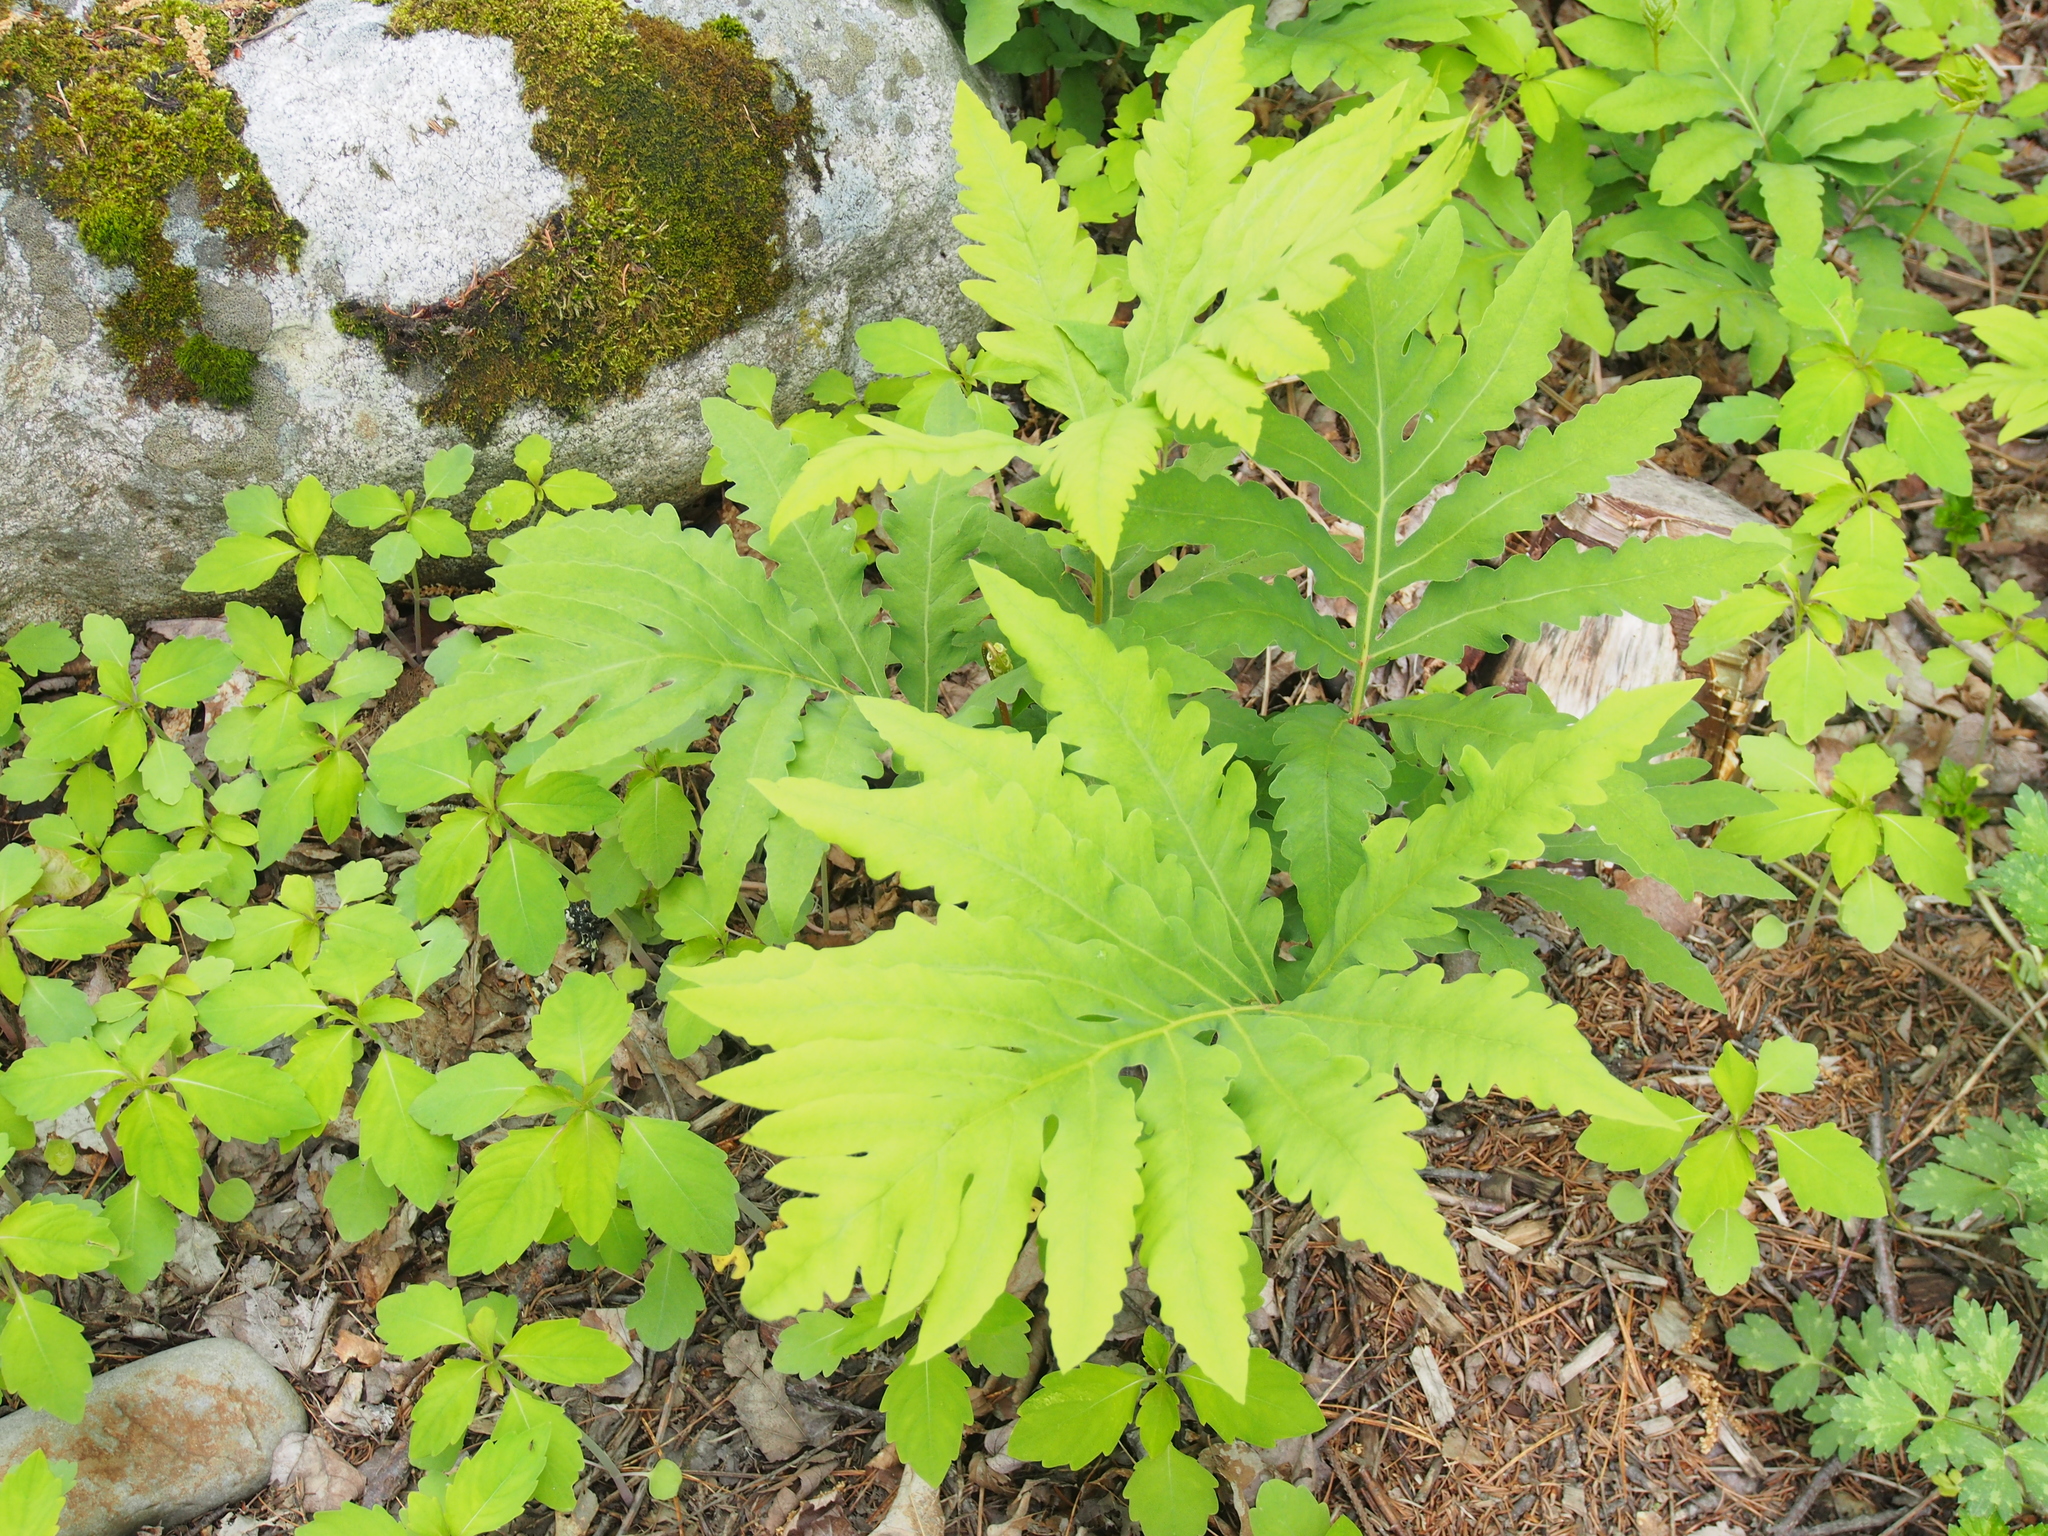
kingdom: Plantae
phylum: Tracheophyta
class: Polypodiopsida
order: Polypodiales
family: Onocleaceae
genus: Onoclea
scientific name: Onoclea sensibilis
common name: Sensitive fern
